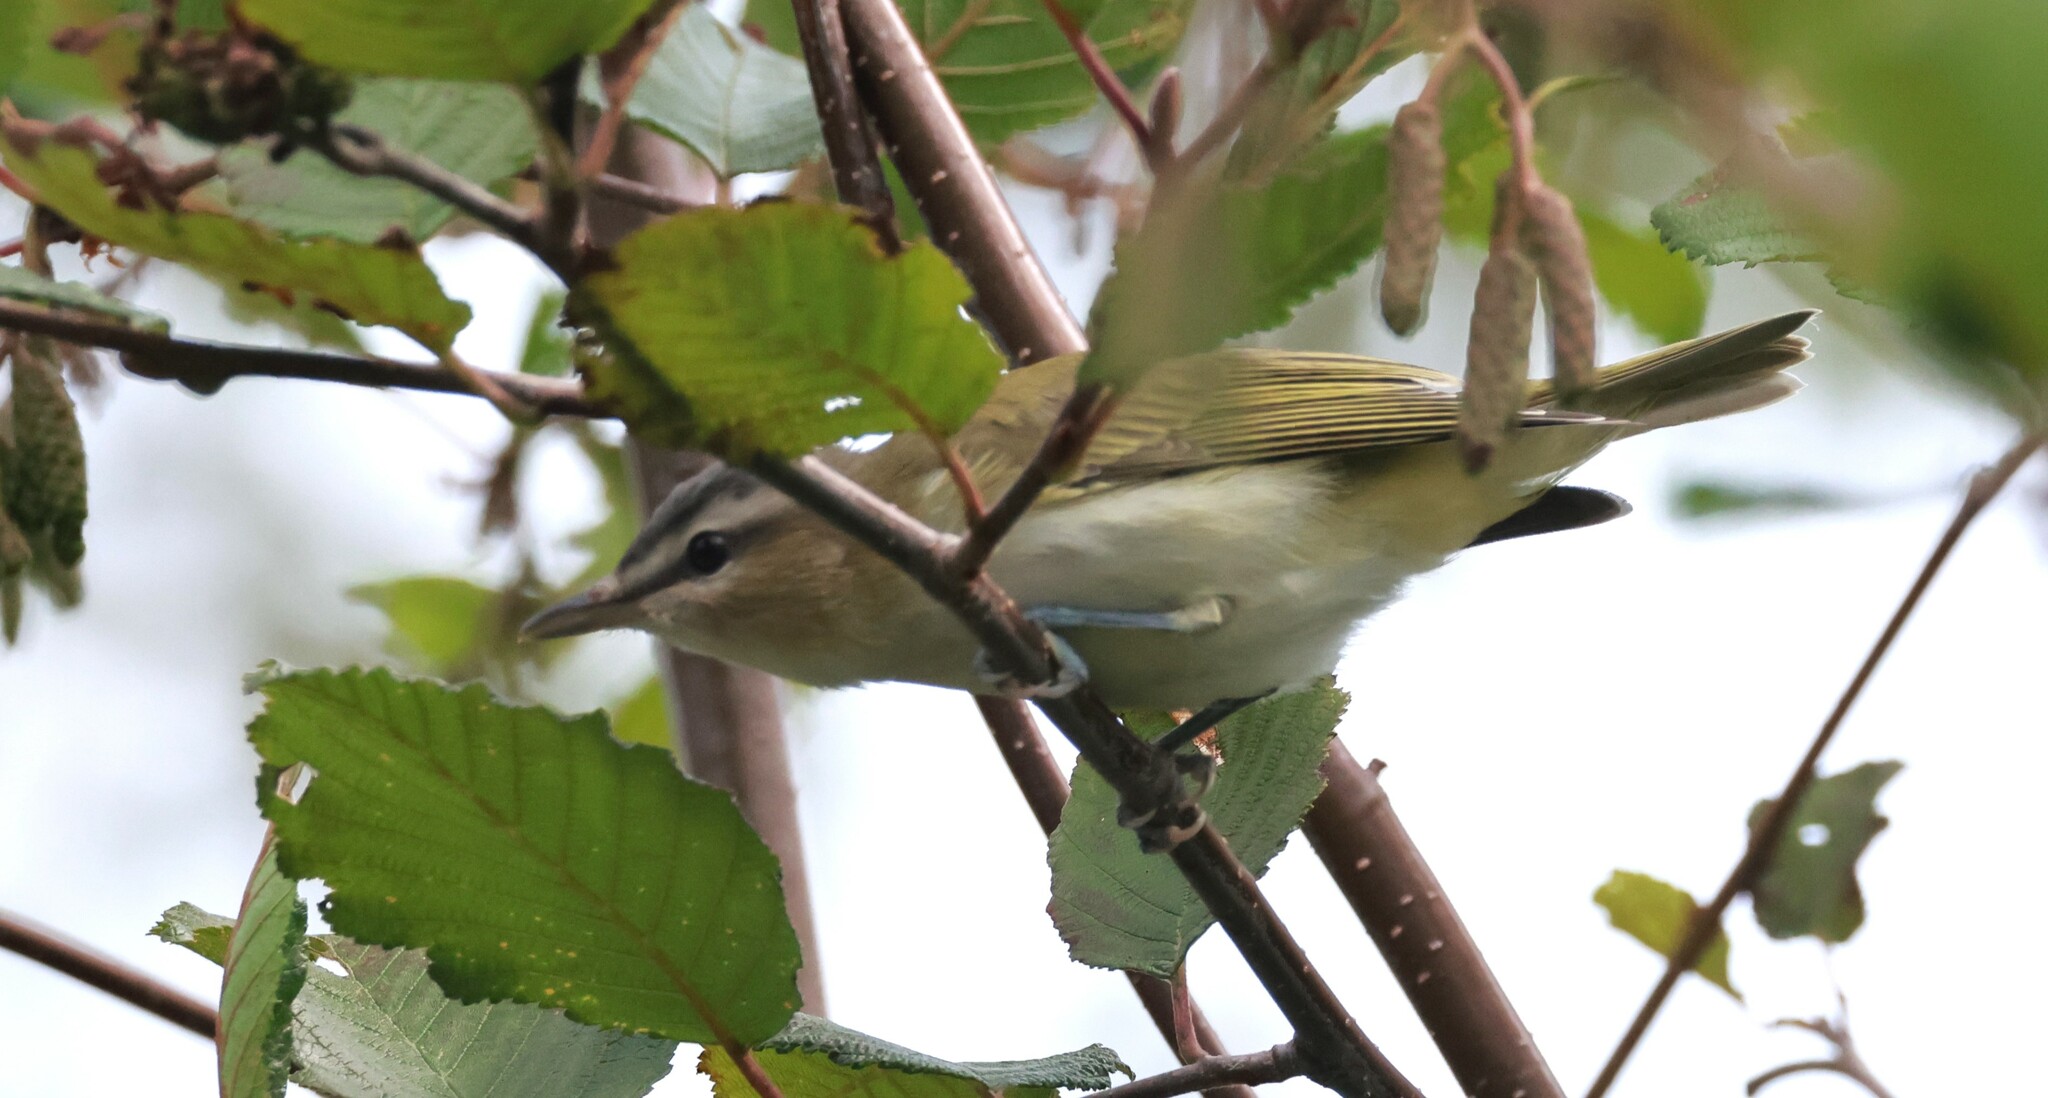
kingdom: Animalia
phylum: Chordata
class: Aves
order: Passeriformes
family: Vireonidae
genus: Vireo
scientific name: Vireo olivaceus
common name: Red-eyed vireo
